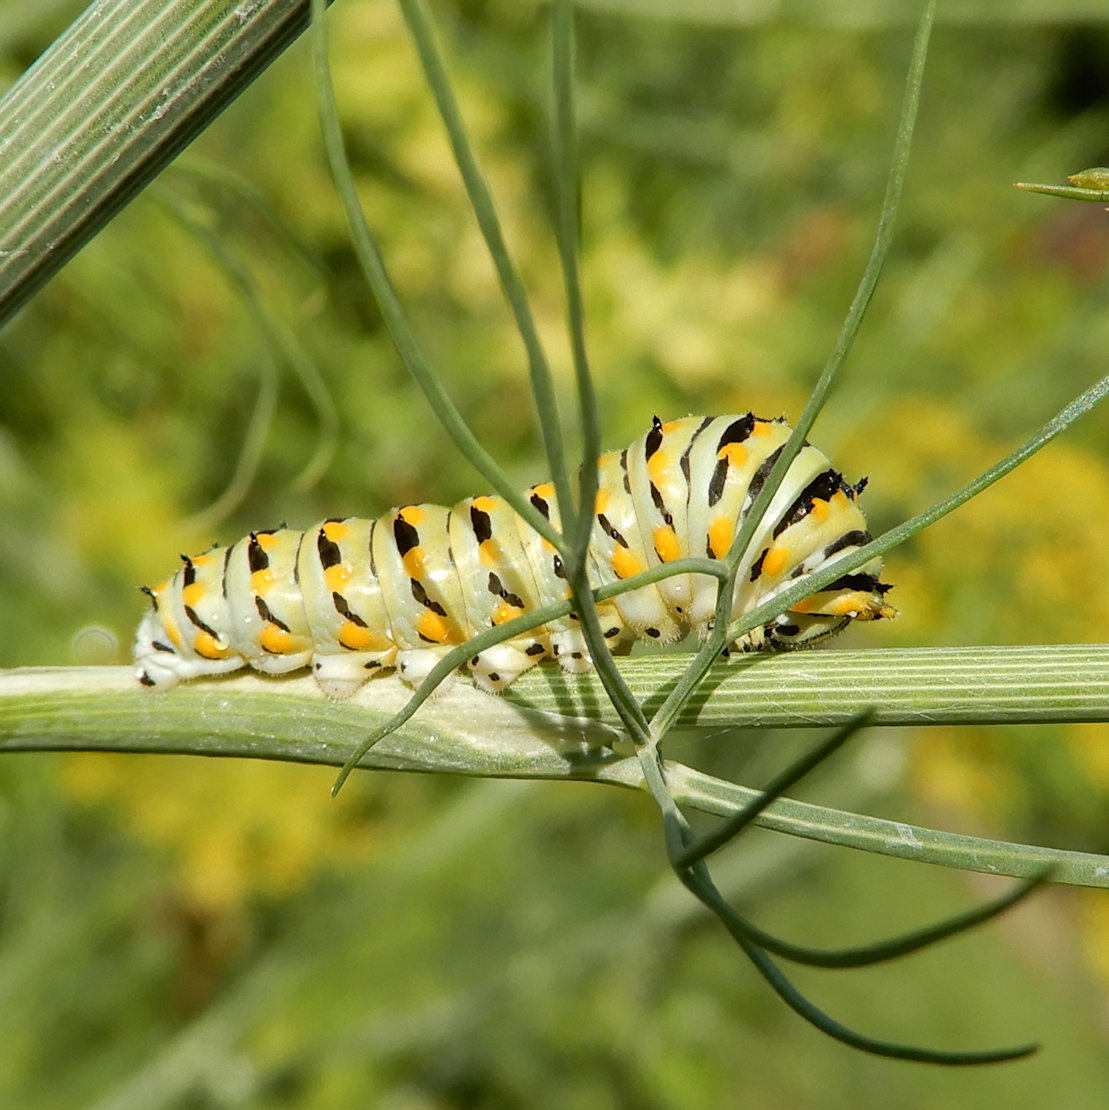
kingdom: Animalia
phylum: Arthropoda
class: Insecta
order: Lepidoptera
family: Papilionidae
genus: Papilio
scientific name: Papilio polyxenes
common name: Black swallowtail
